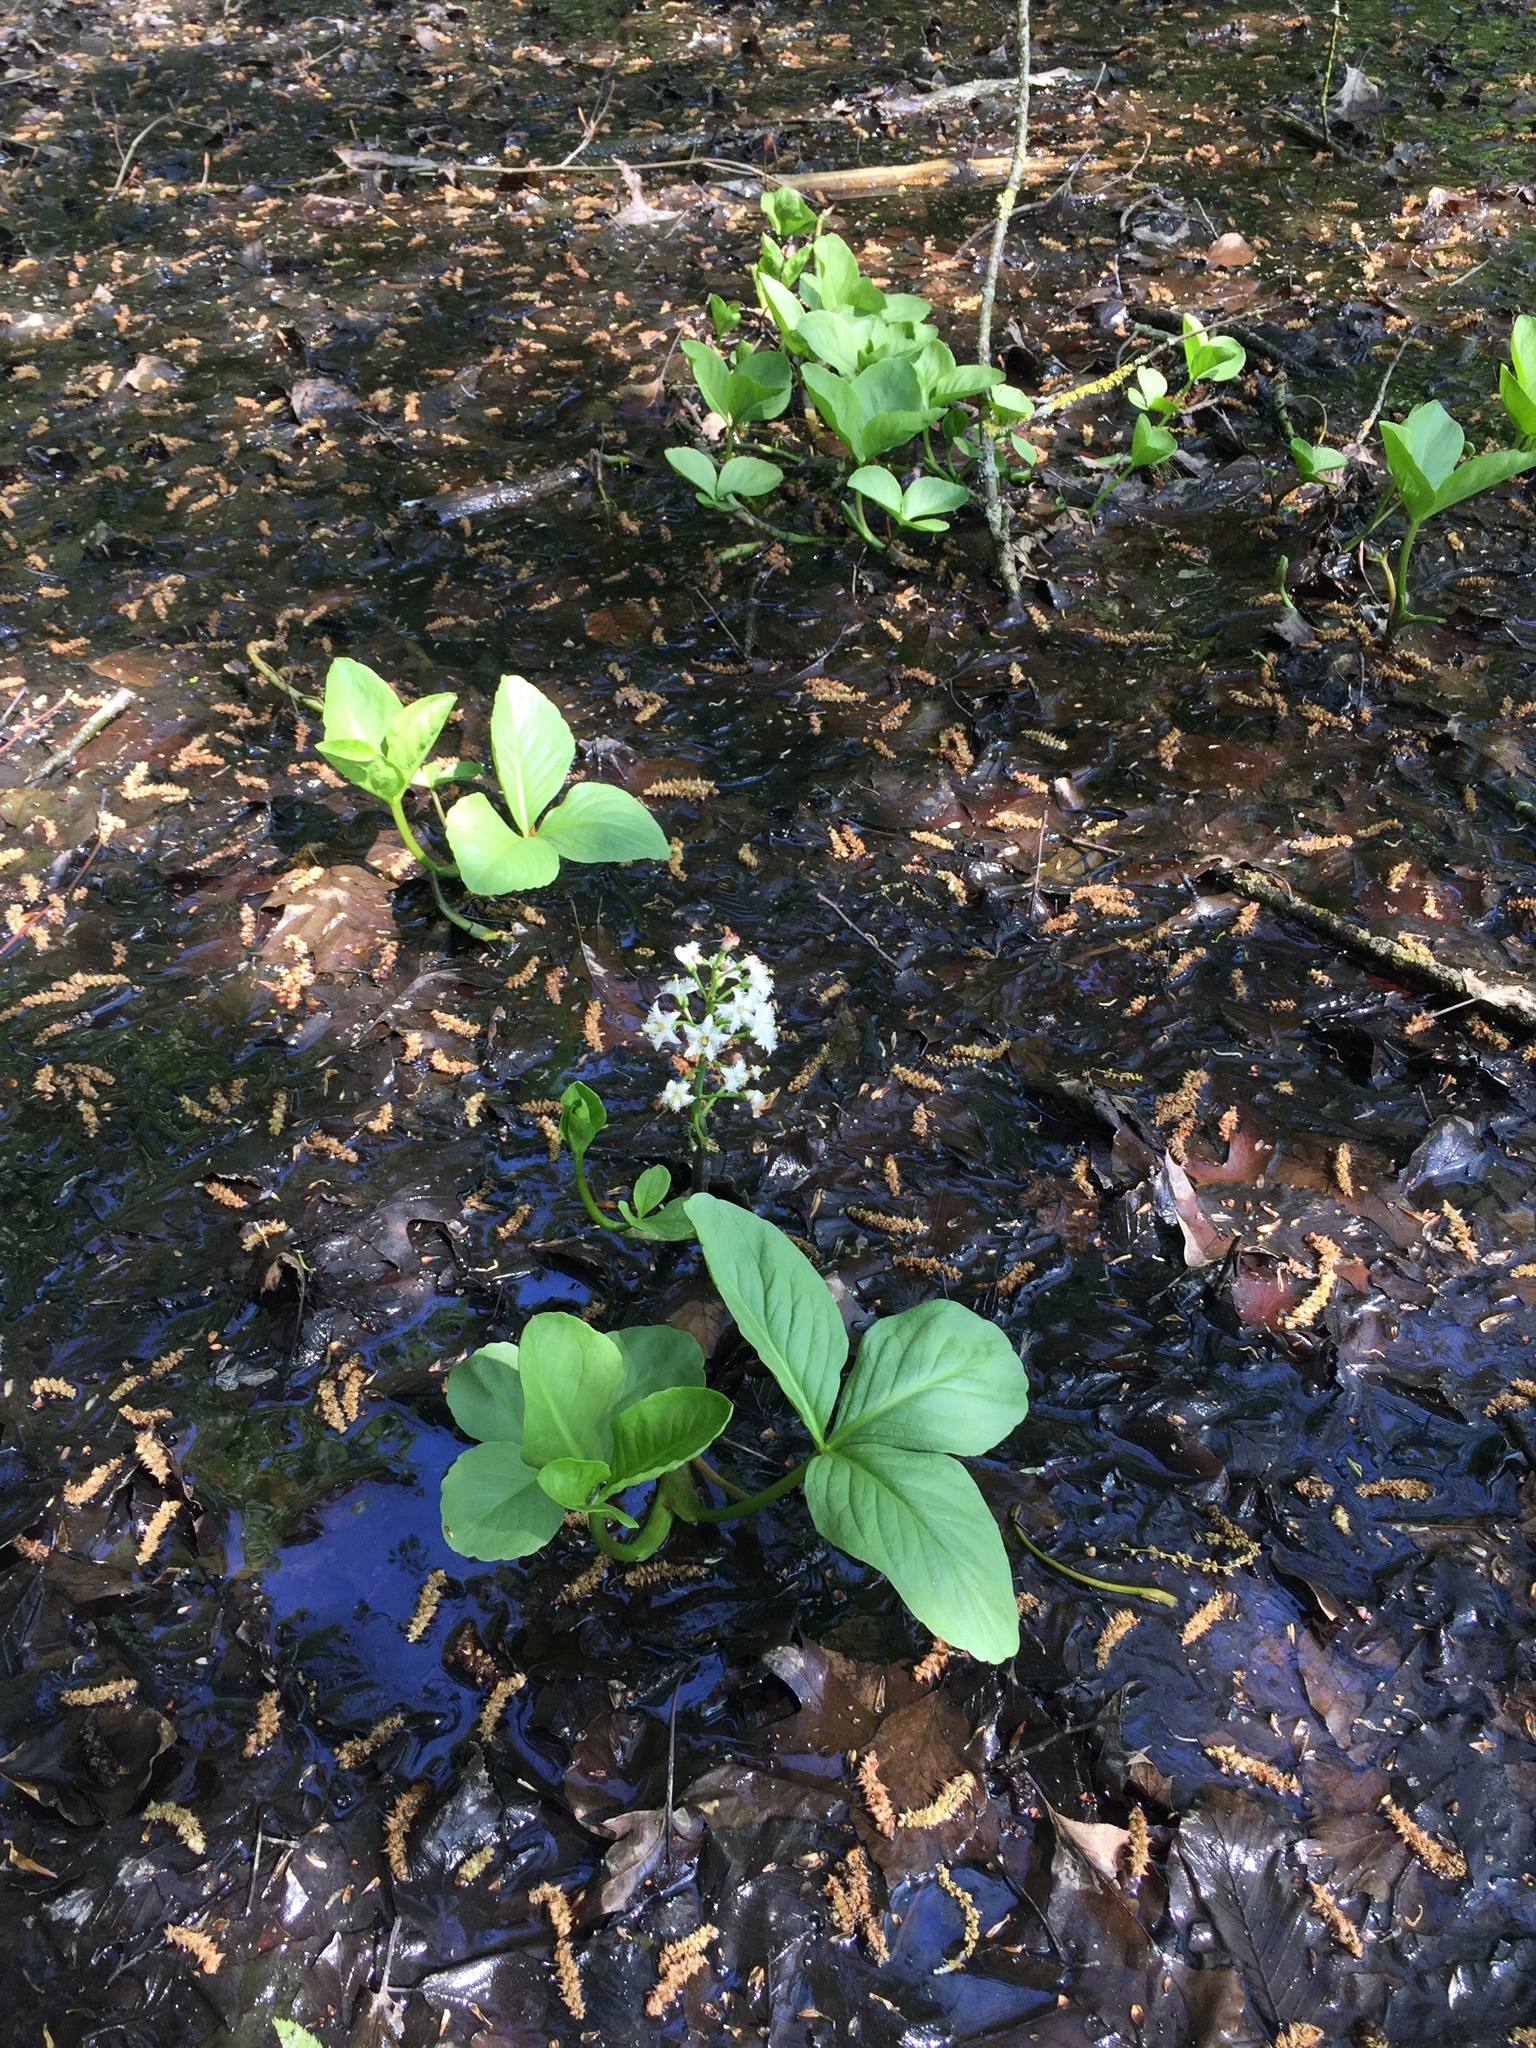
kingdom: Plantae
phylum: Tracheophyta
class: Magnoliopsida
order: Asterales
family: Menyanthaceae
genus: Menyanthes
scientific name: Menyanthes trifoliata
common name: Bogbean
